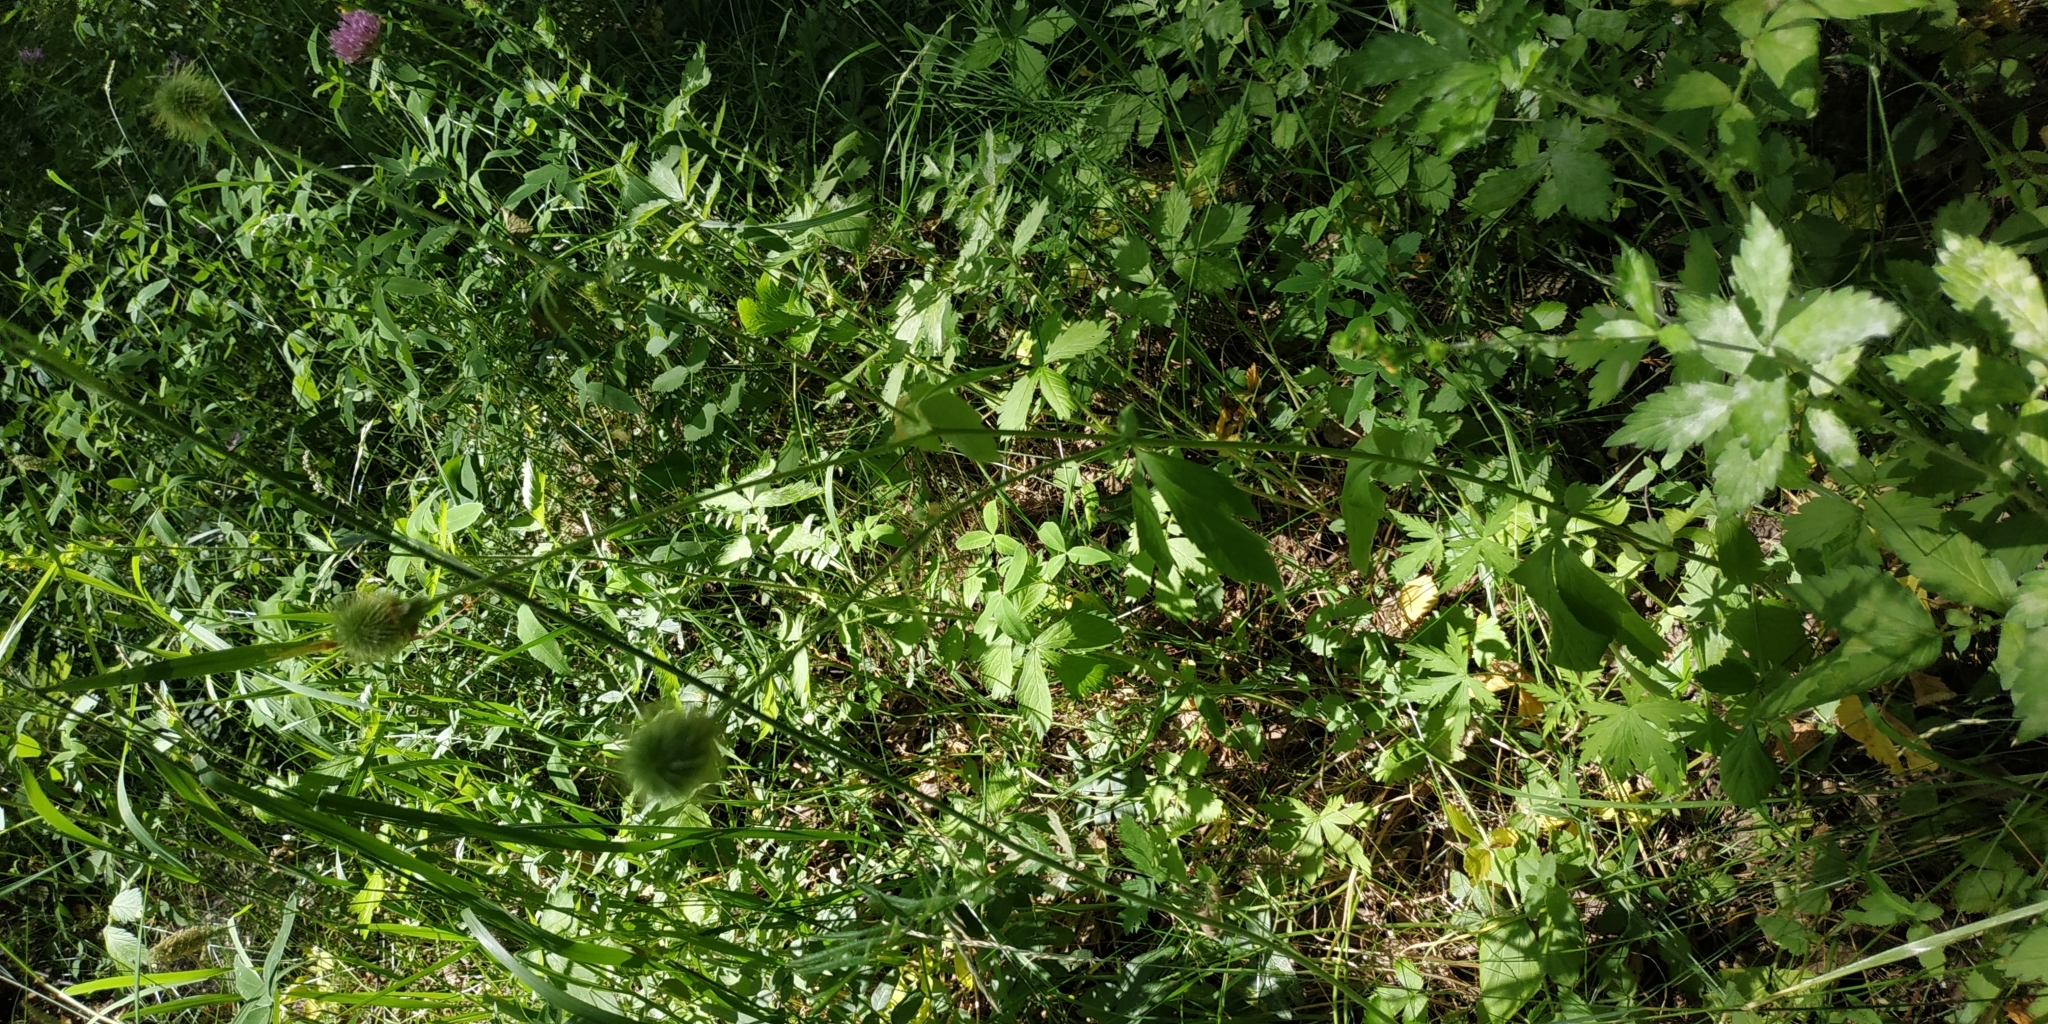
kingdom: Plantae
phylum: Tracheophyta
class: Magnoliopsida
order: Rosales
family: Rosaceae
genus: Geum
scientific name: Geum urbanum
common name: Wood avens
